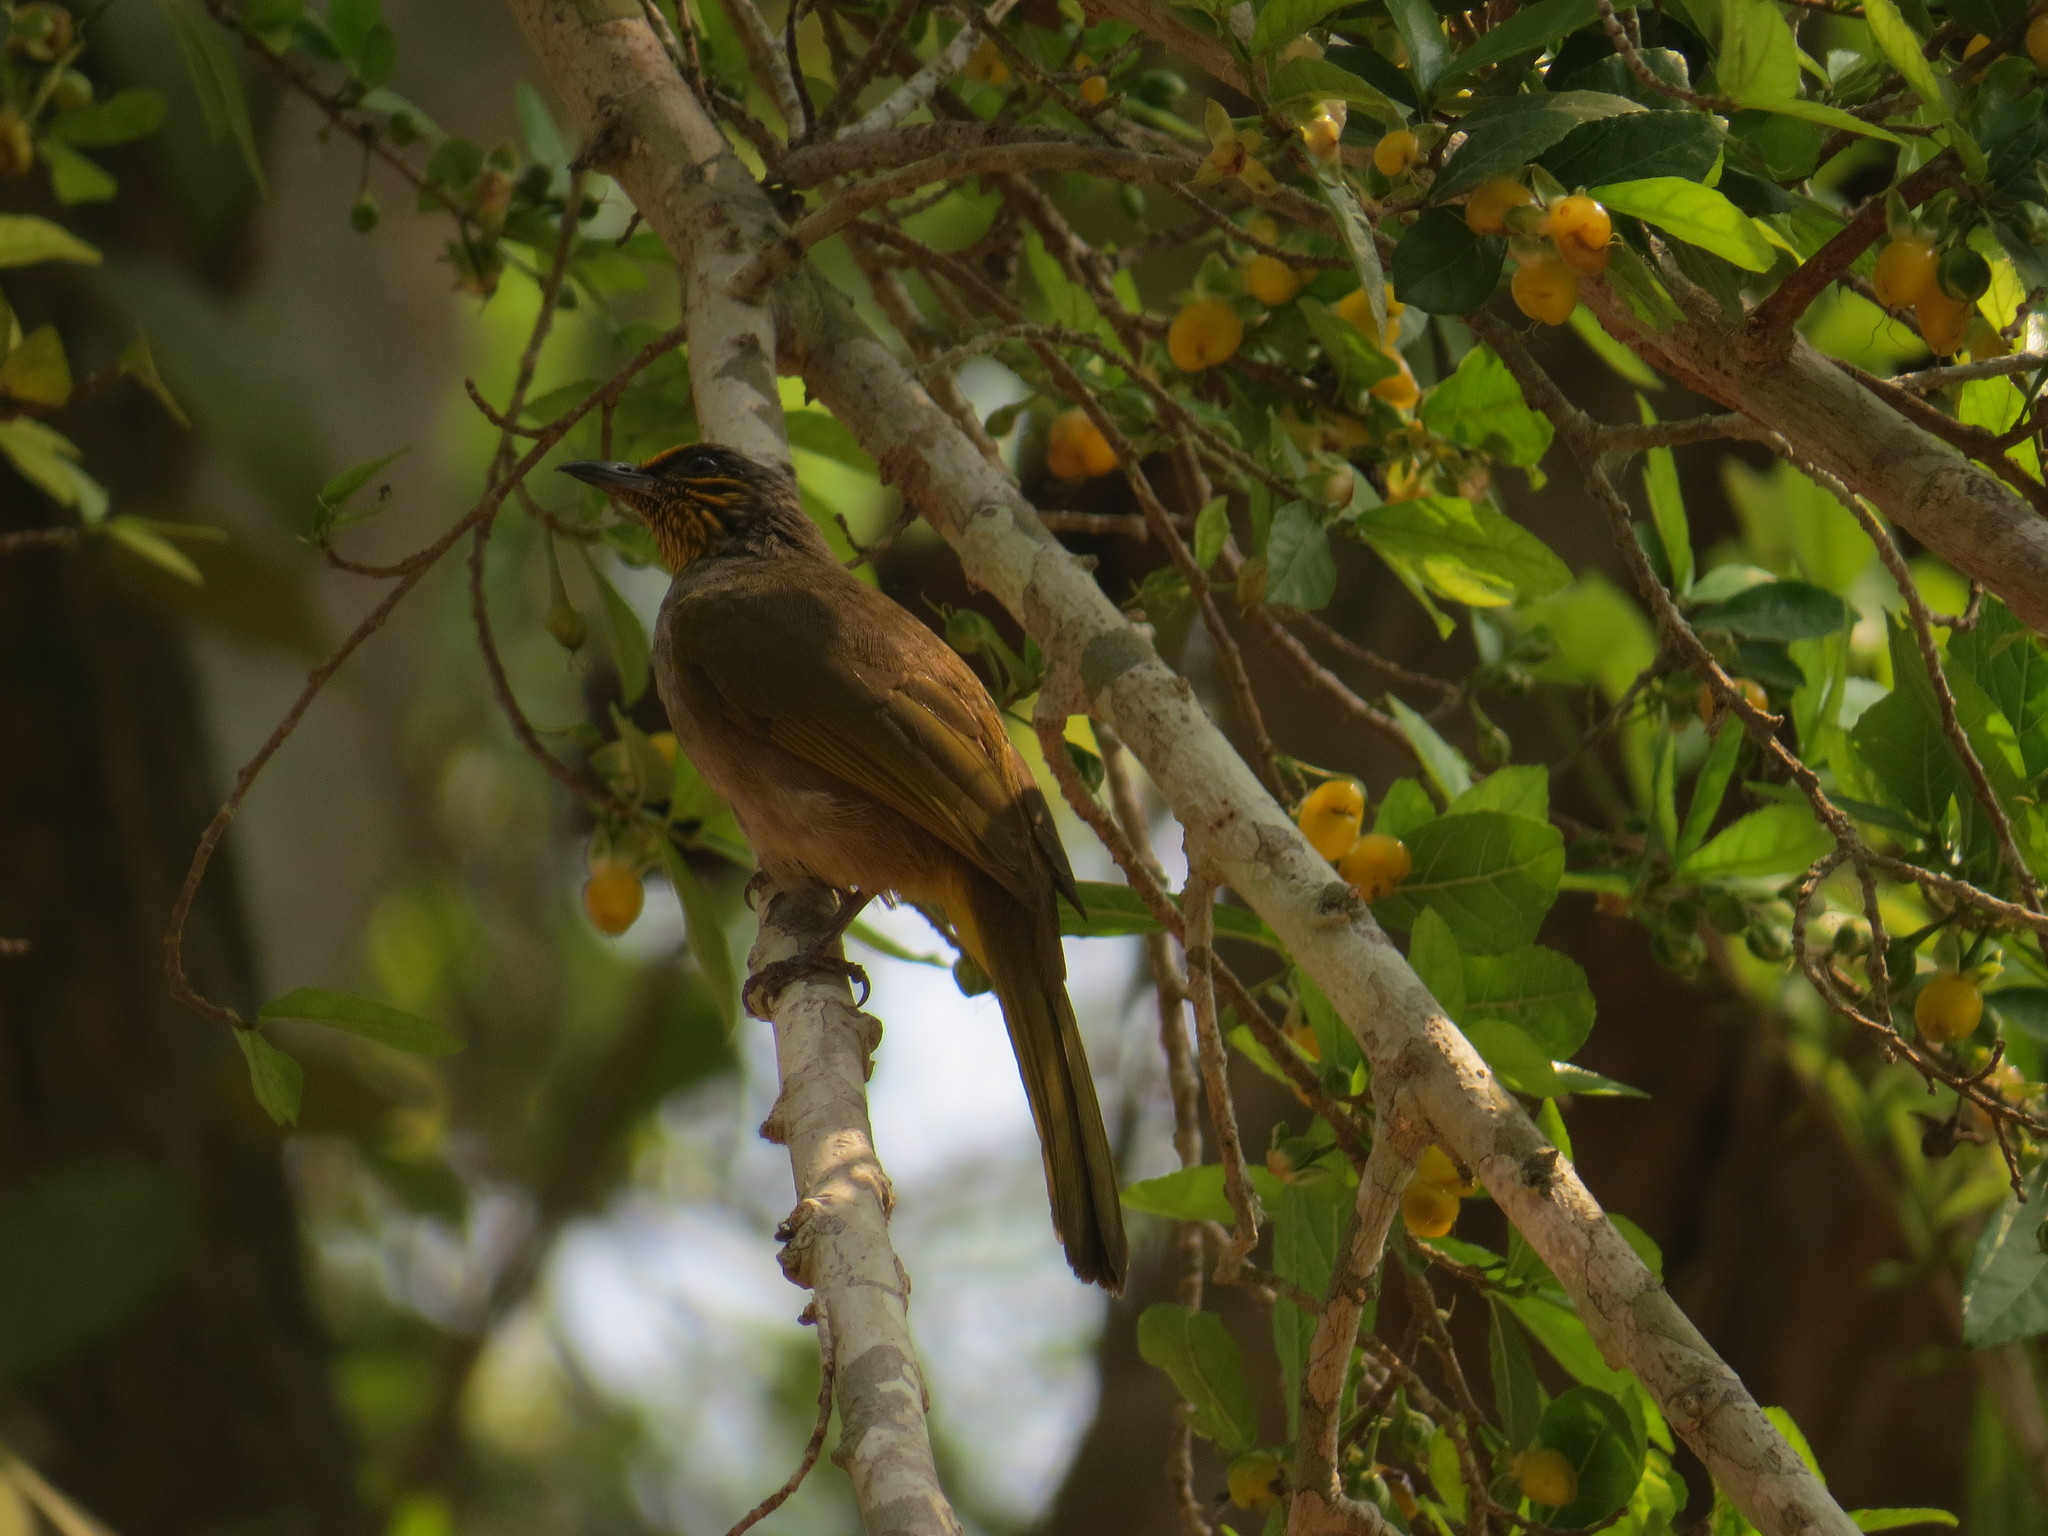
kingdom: Animalia
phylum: Chordata
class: Aves
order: Passeriformes
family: Pycnonotidae
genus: Pycnonotus
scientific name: Pycnonotus finlaysoni
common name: Stripe-throated bulbul
